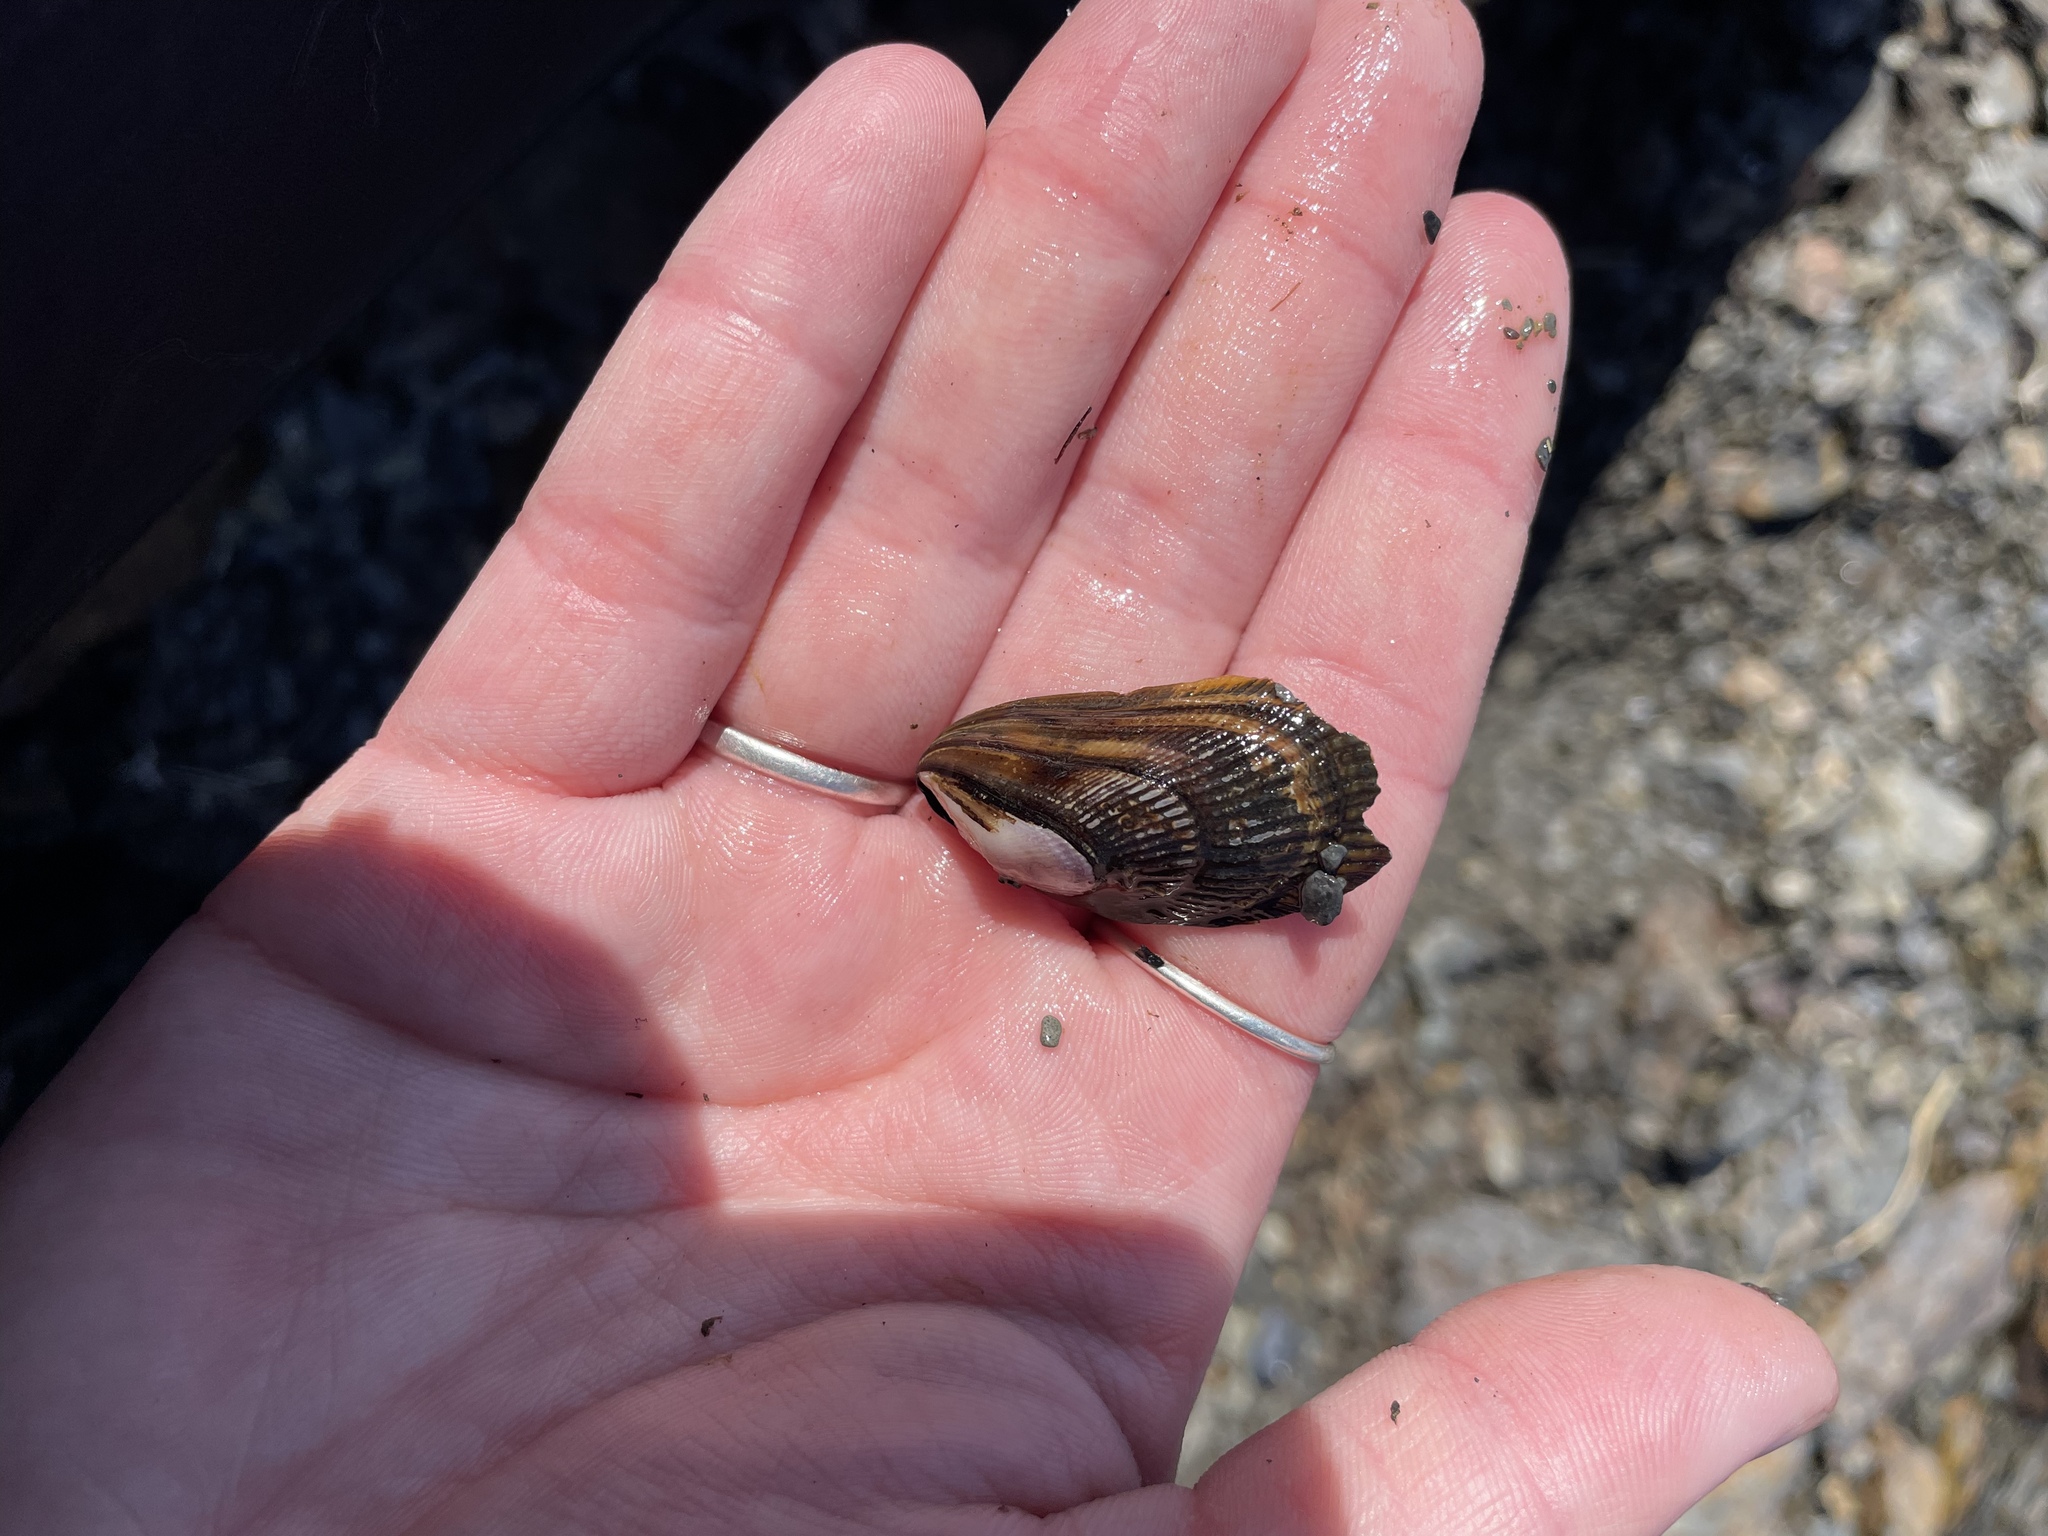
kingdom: Animalia
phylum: Mollusca
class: Bivalvia
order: Mytilida
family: Mytilidae
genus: Geukensia
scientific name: Geukensia demissa
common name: Ribbed mussel
